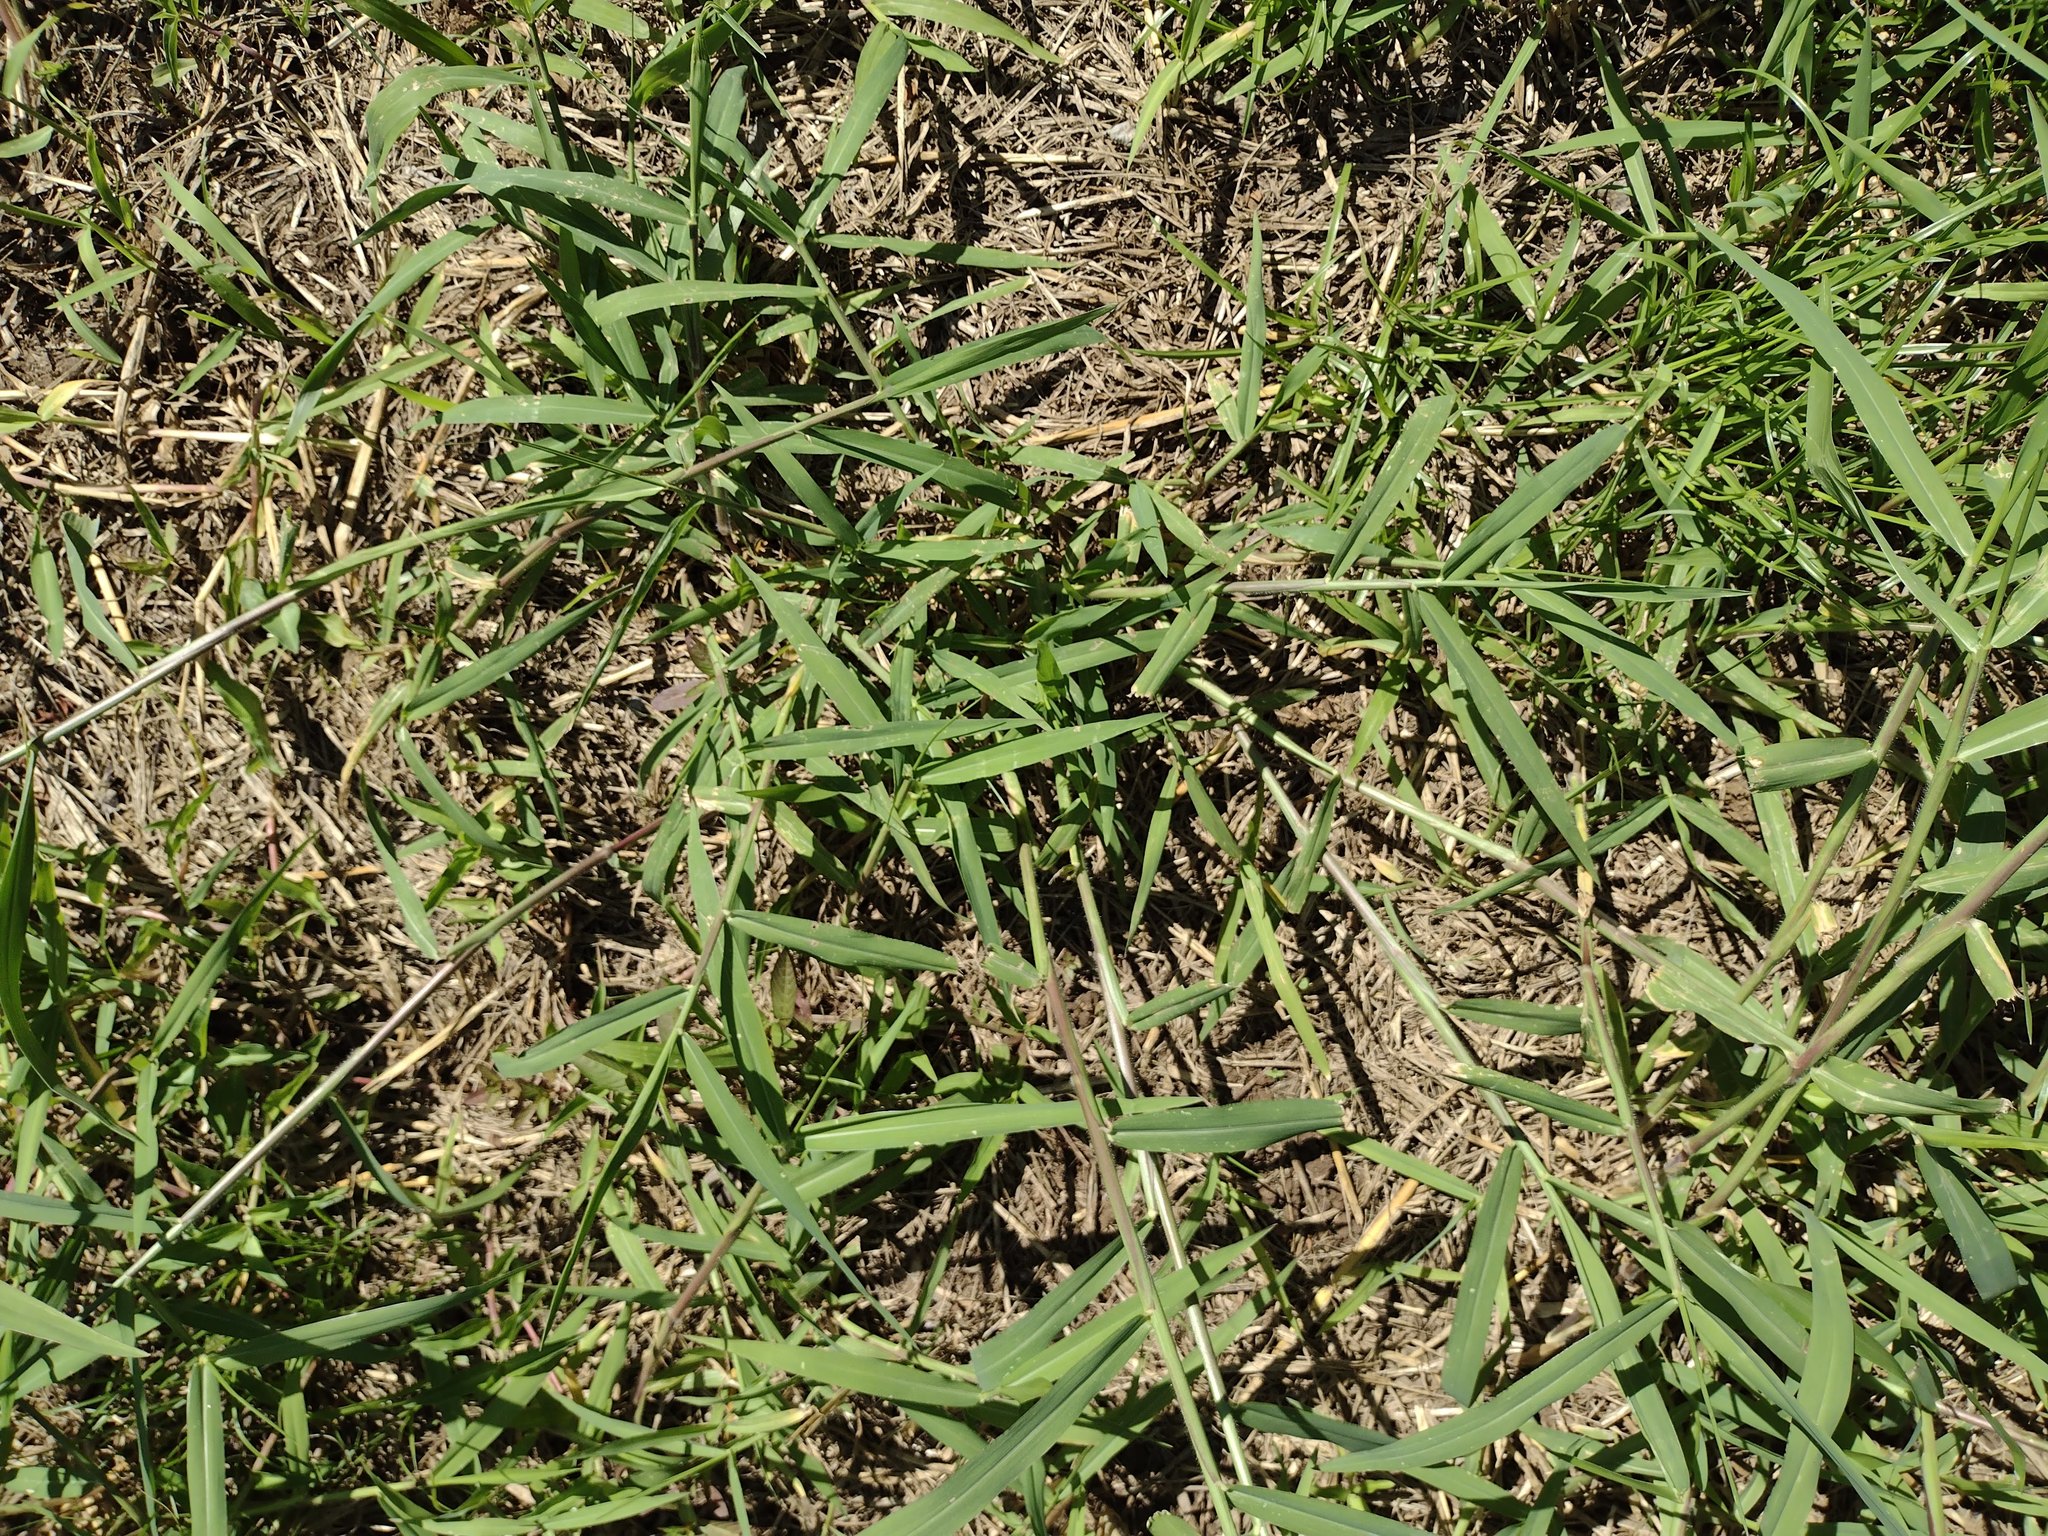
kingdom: Plantae
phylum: Tracheophyta
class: Liliopsida
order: Poales
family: Poaceae
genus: Urochloa
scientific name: Urochloa mutica
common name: Para grass
